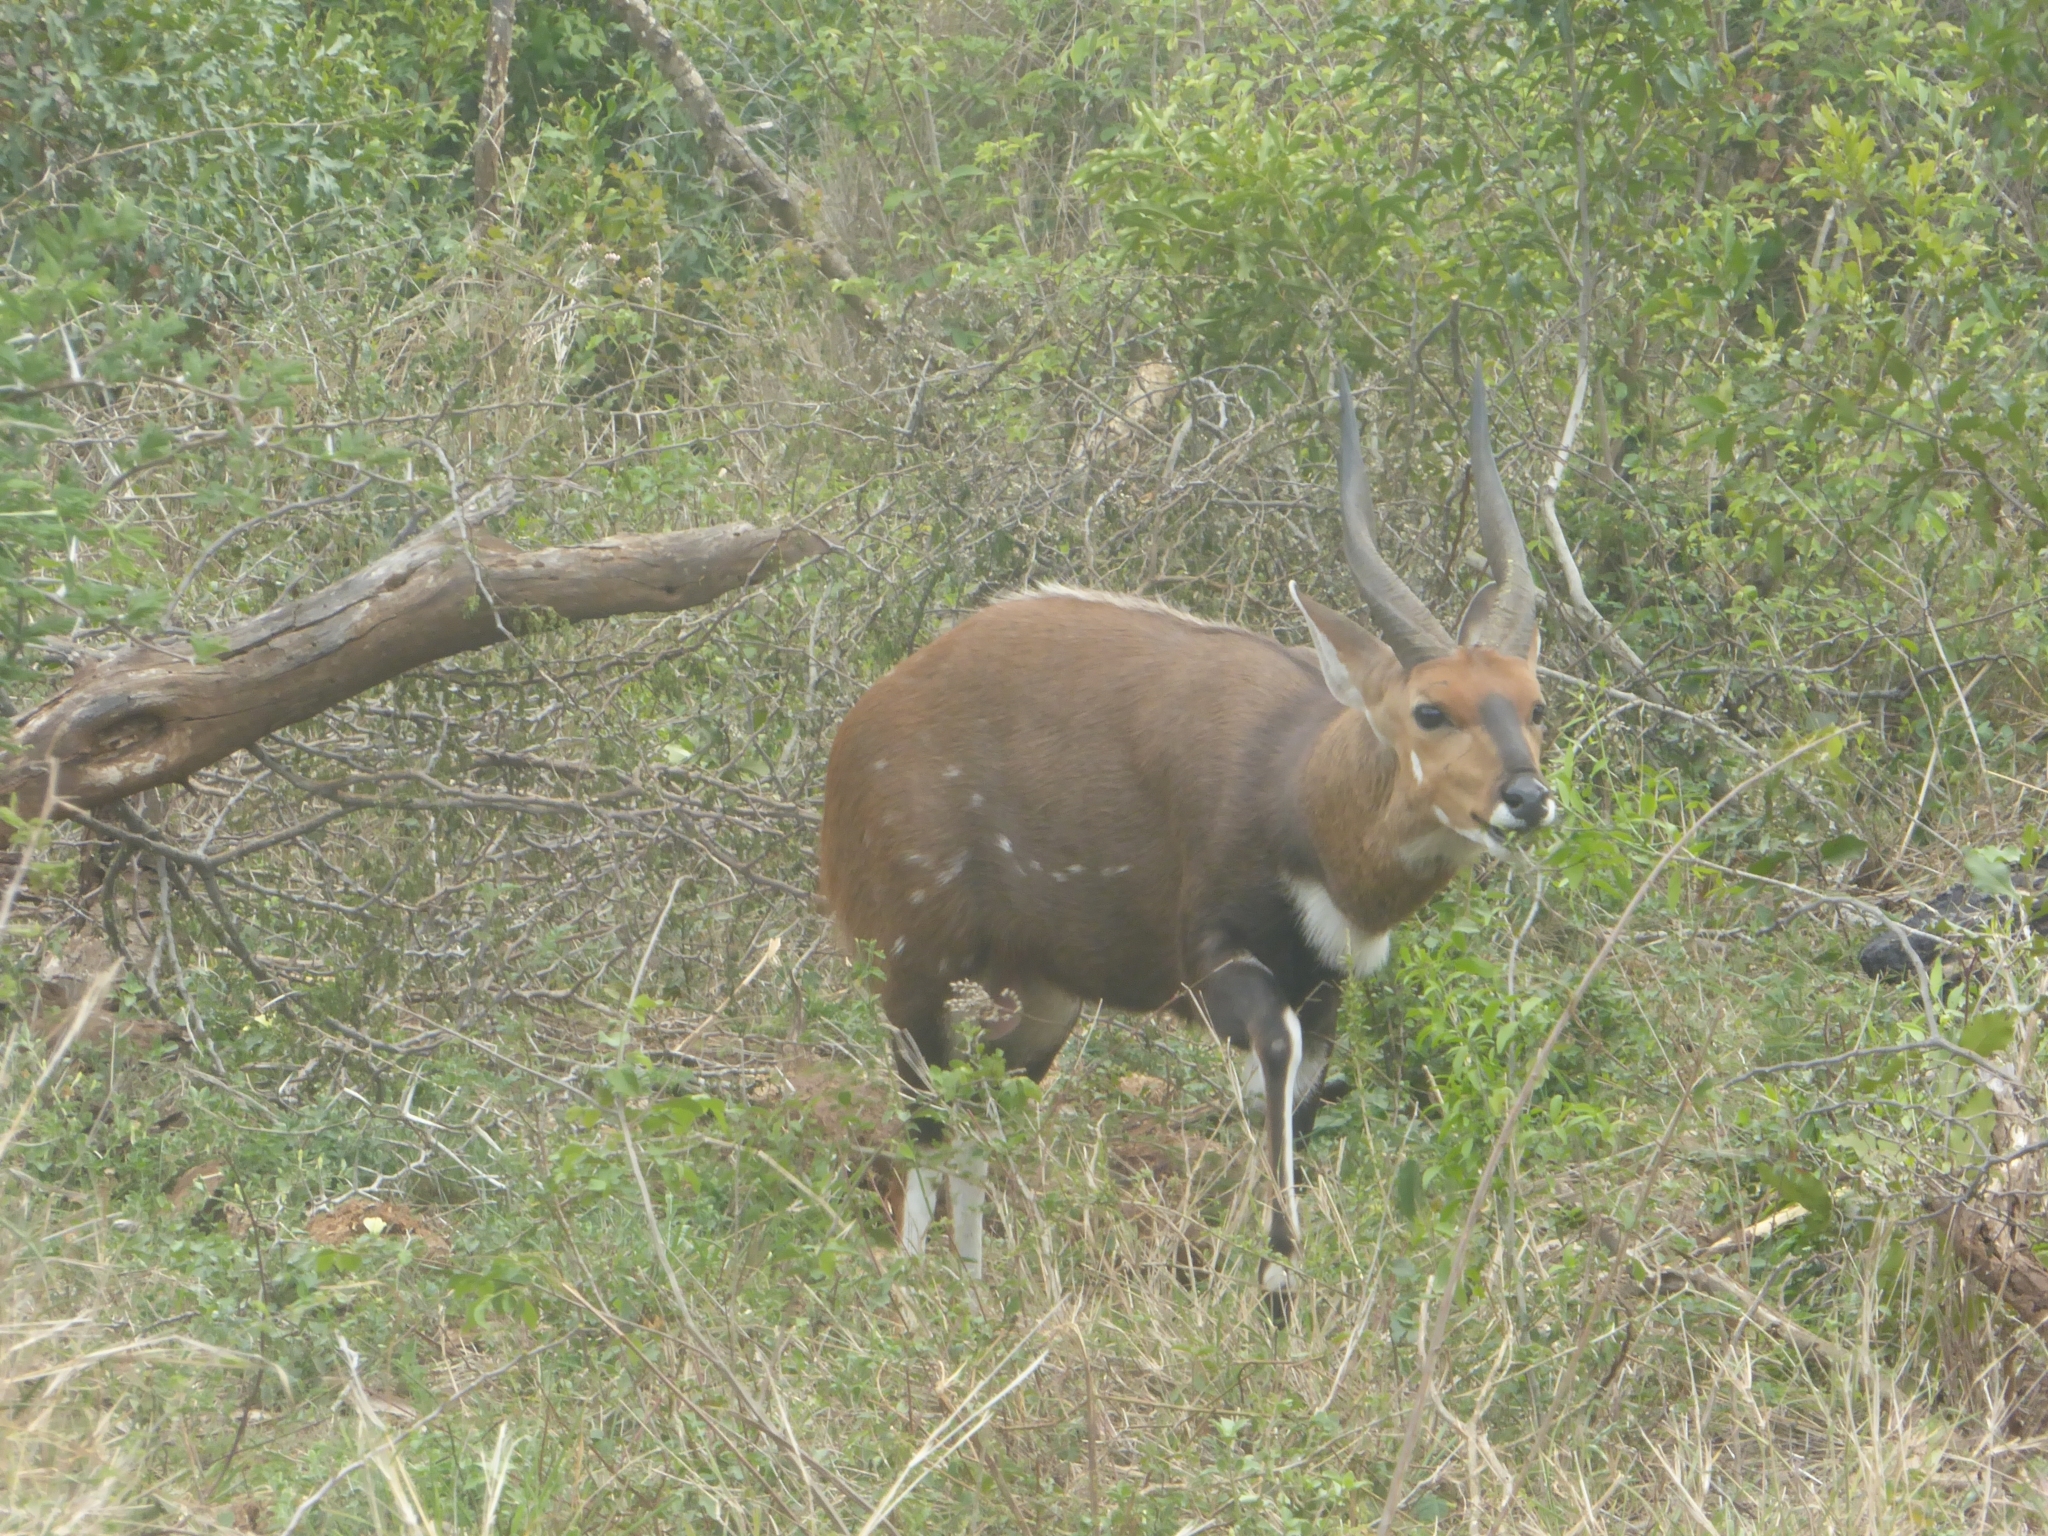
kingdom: Animalia
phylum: Chordata
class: Mammalia
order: Artiodactyla
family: Bovidae
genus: Tragelaphus
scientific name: Tragelaphus scriptus
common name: Bushbuck
